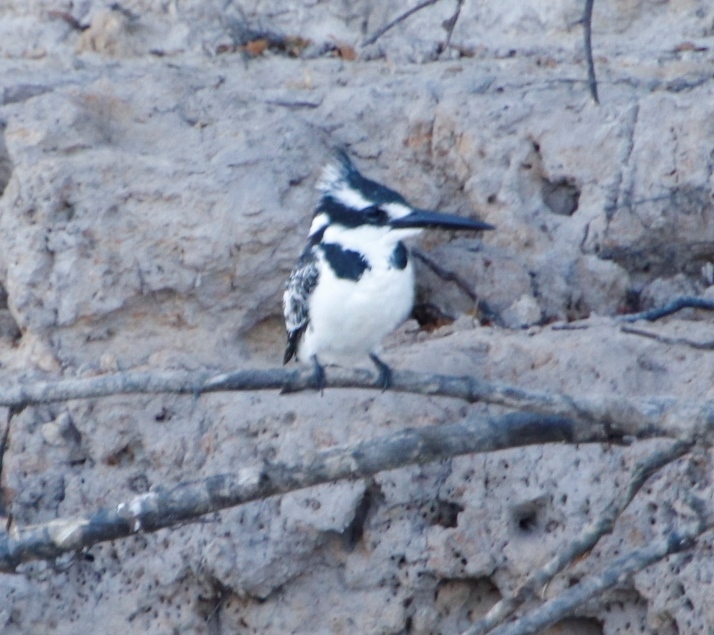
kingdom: Animalia
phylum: Chordata
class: Aves
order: Coraciiformes
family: Alcedinidae
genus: Ceryle
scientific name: Ceryle rudis
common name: Pied kingfisher
